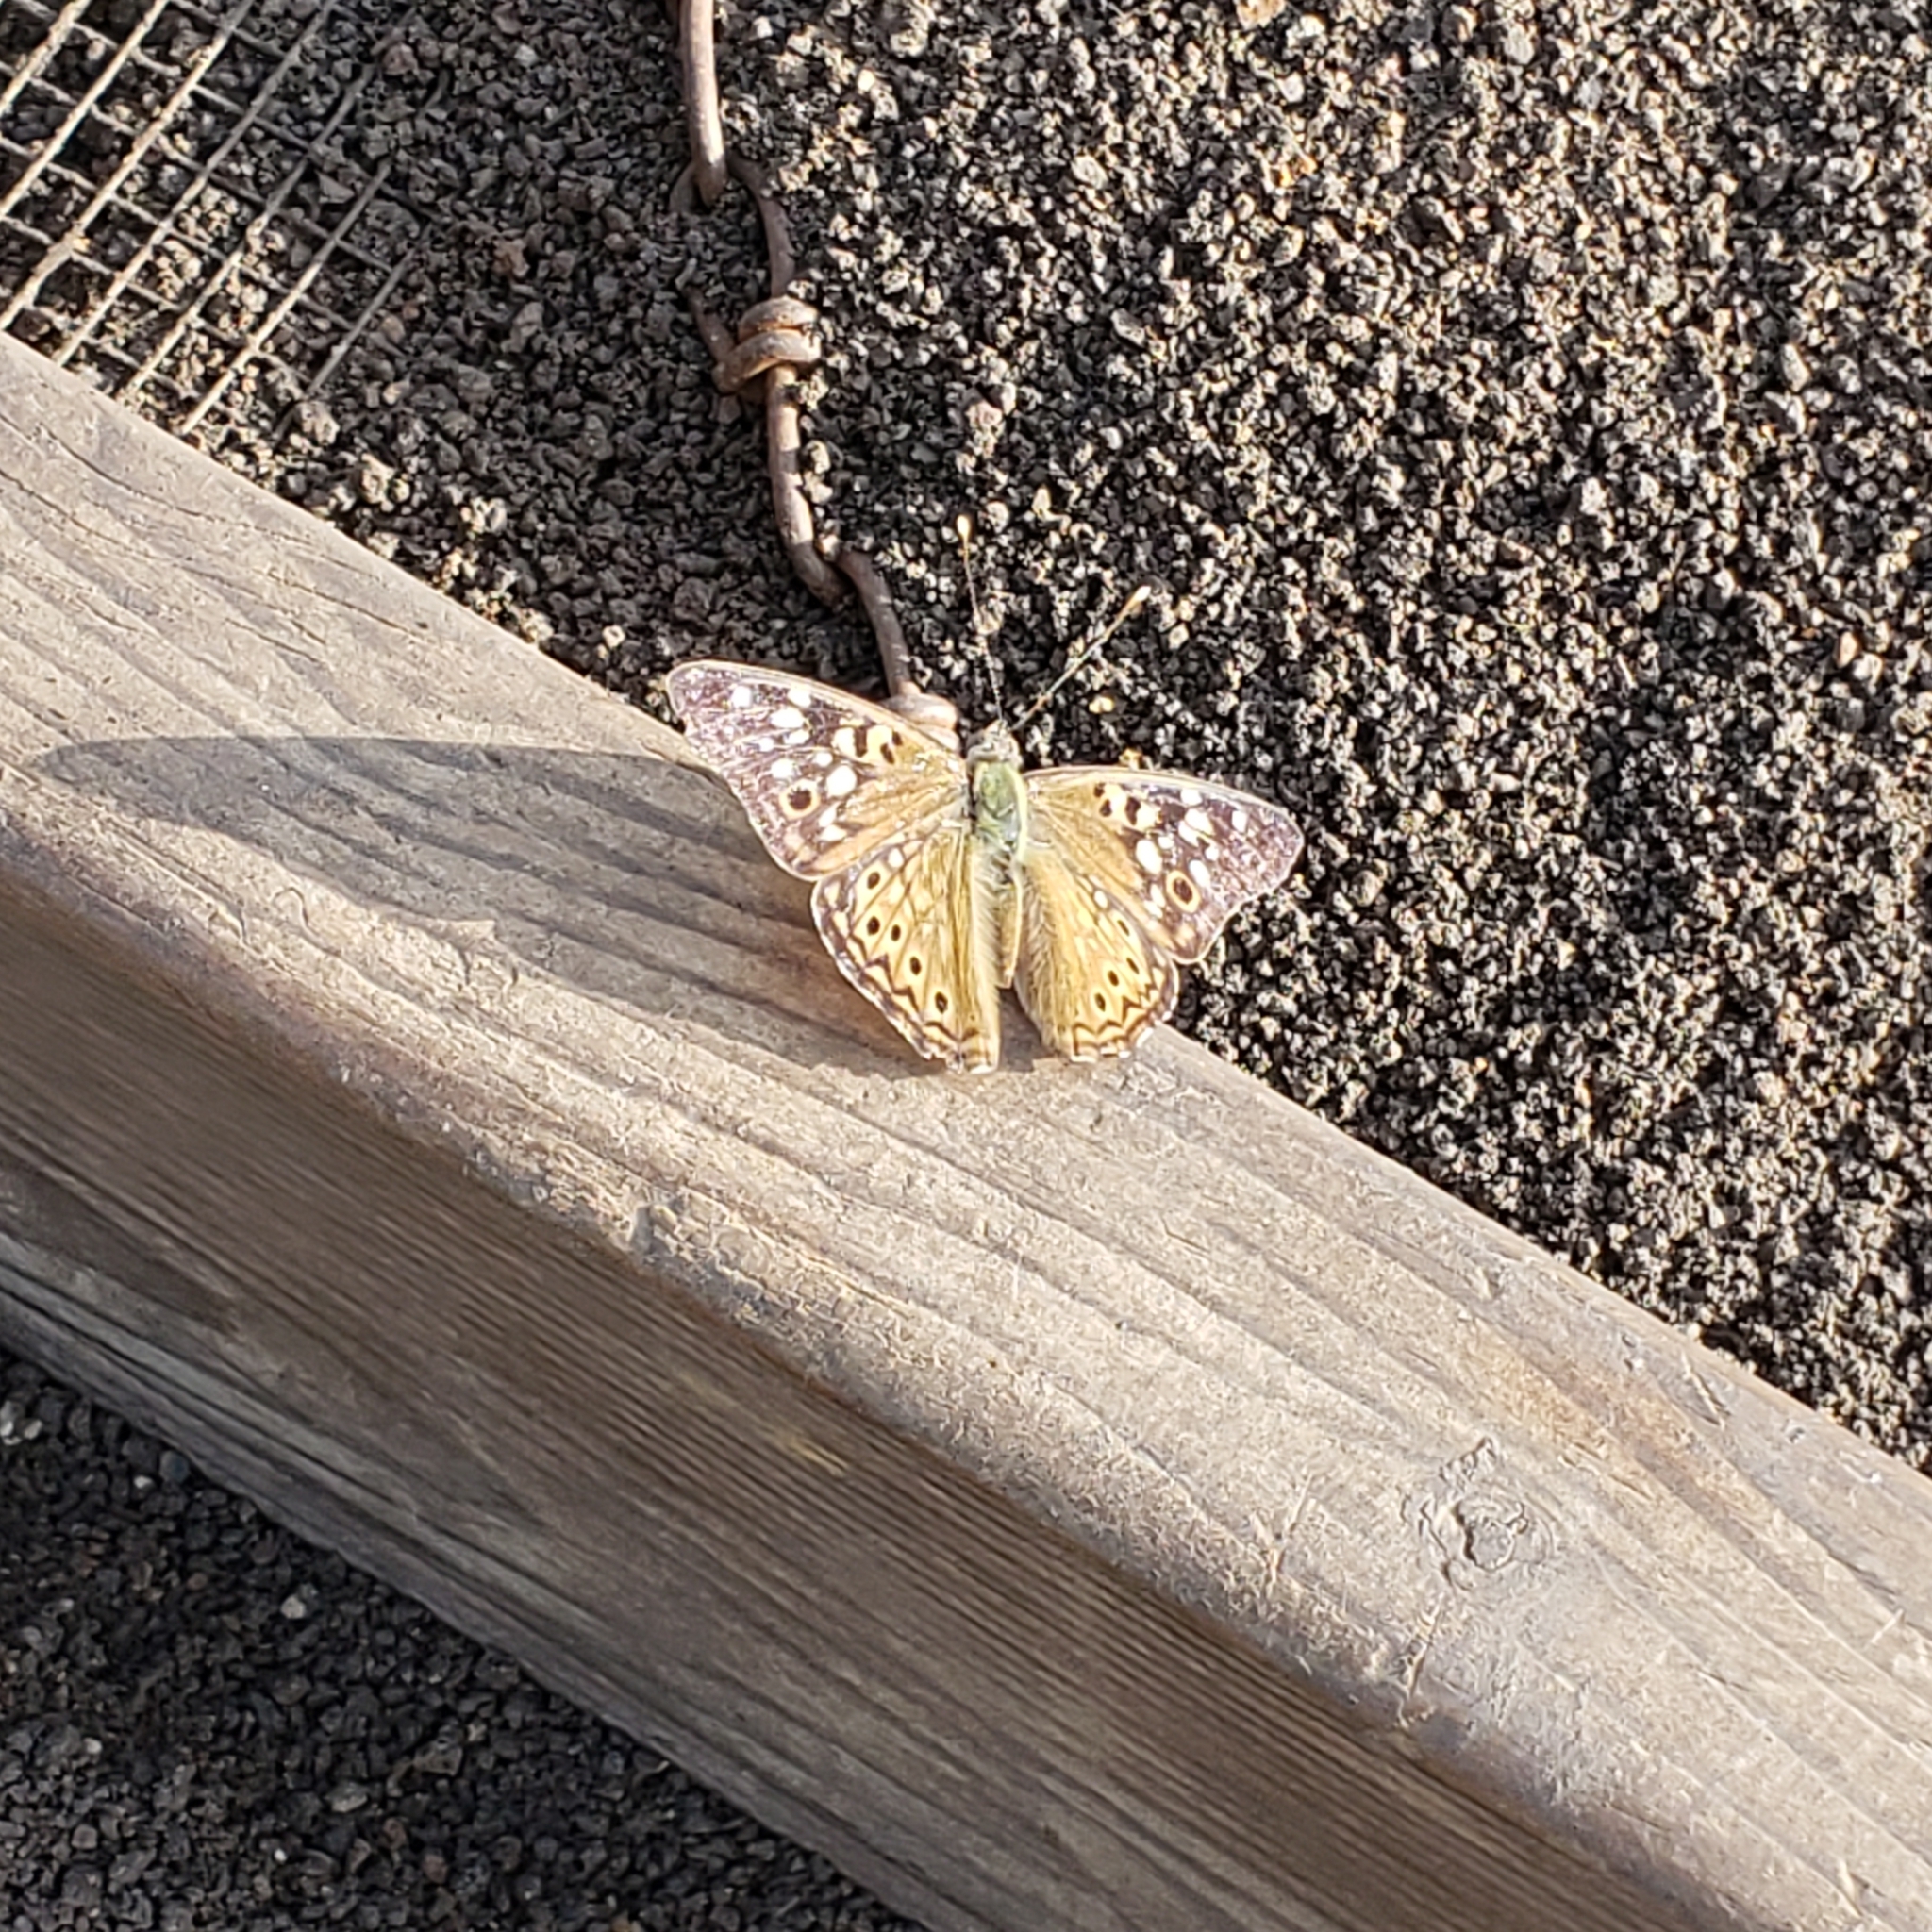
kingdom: Animalia
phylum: Arthropoda
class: Insecta
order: Lepidoptera
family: Nymphalidae
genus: Asterocampa
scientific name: Asterocampa celtis
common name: Hackberry emperor
